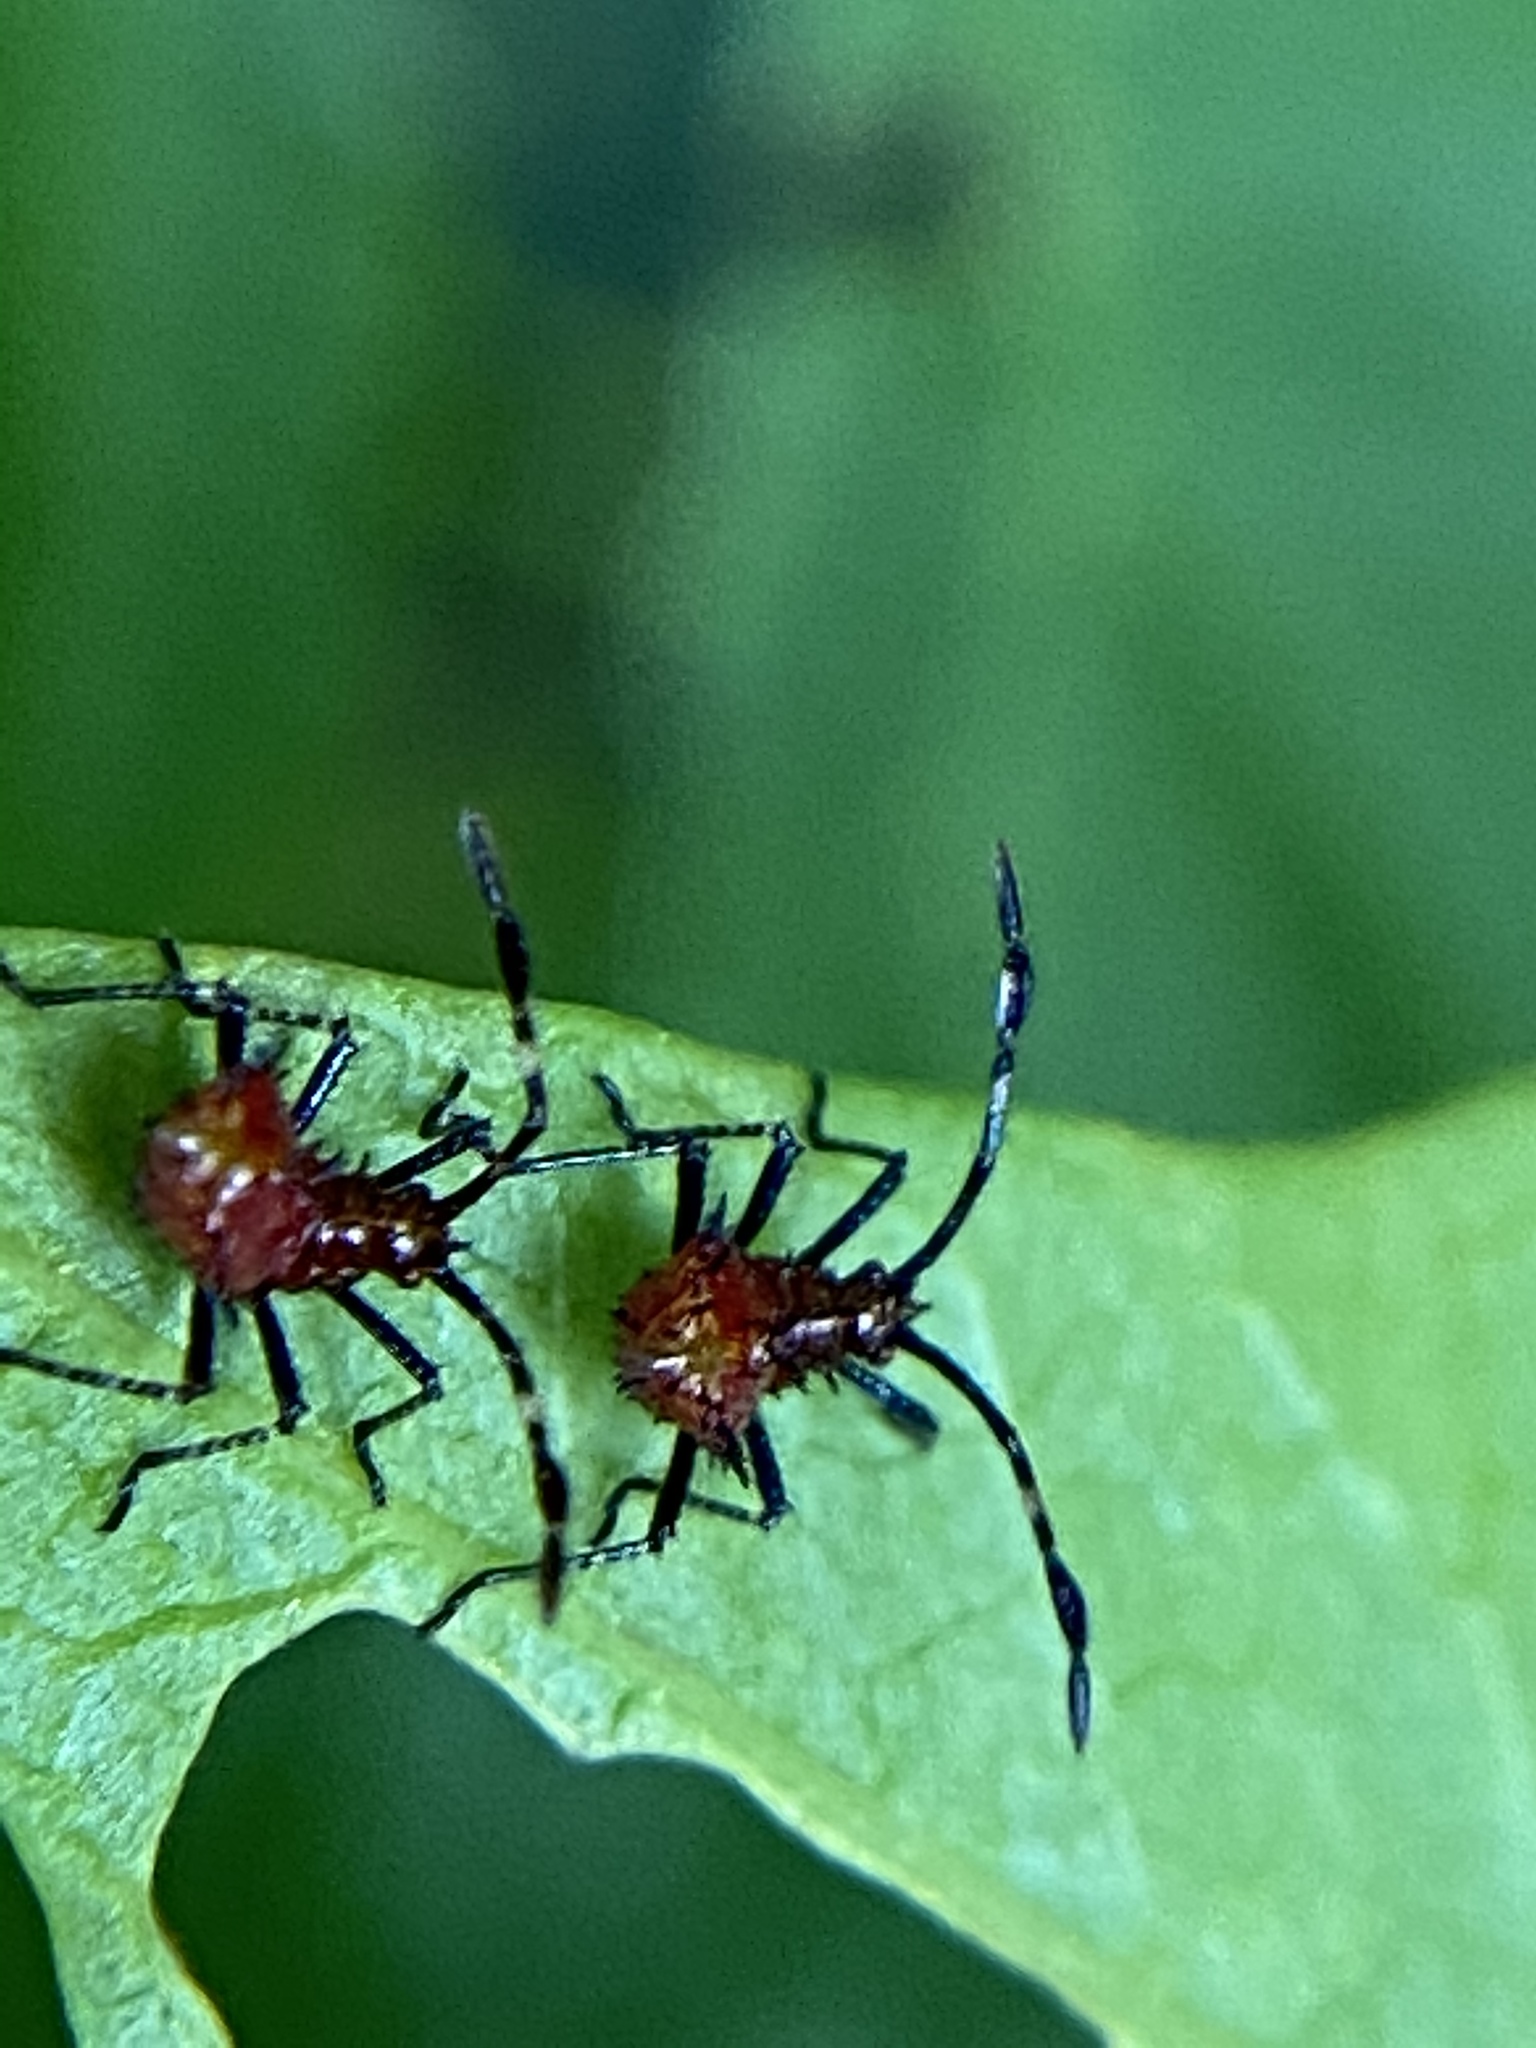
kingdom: Animalia
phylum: Arthropoda
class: Insecta
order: Hemiptera
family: Coreidae
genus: Euthochtha
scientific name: Euthochtha galeator
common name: Helmeted squash bug
